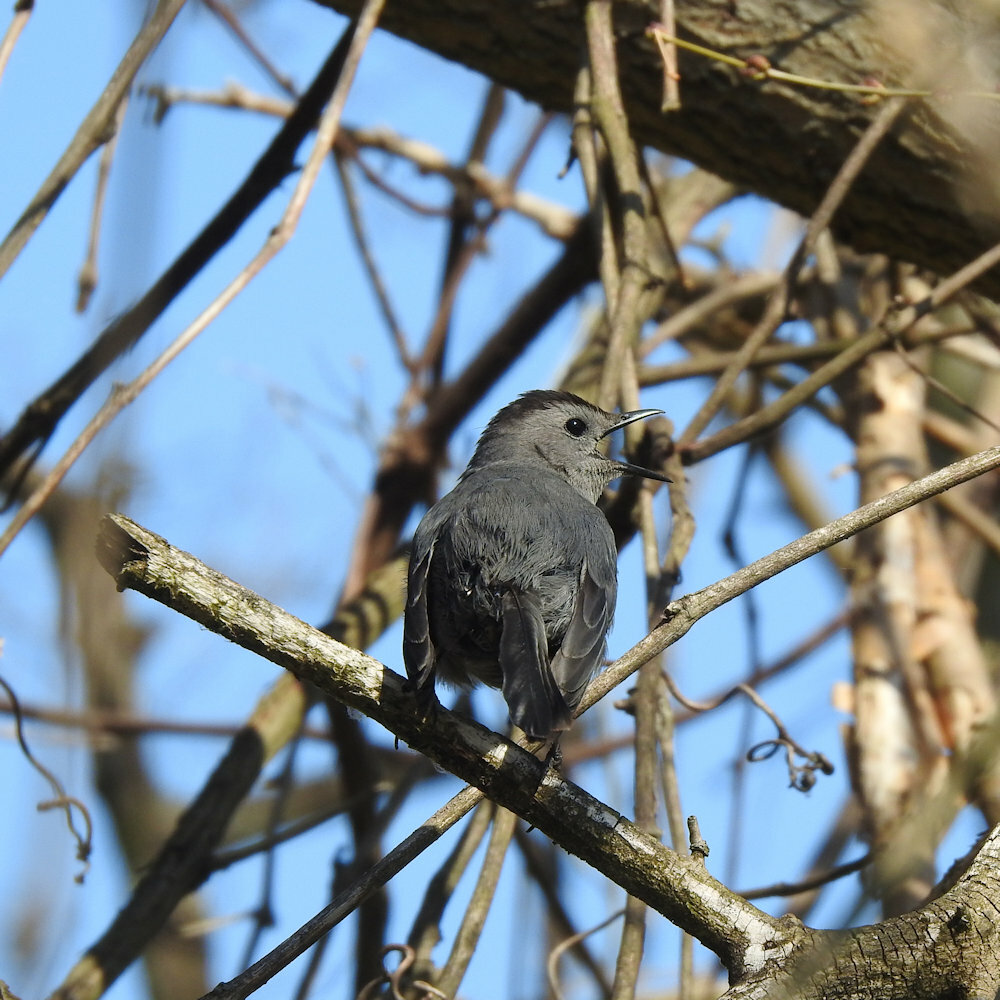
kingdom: Animalia
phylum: Chordata
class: Aves
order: Passeriformes
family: Mimidae
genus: Dumetella
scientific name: Dumetella carolinensis
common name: Gray catbird
